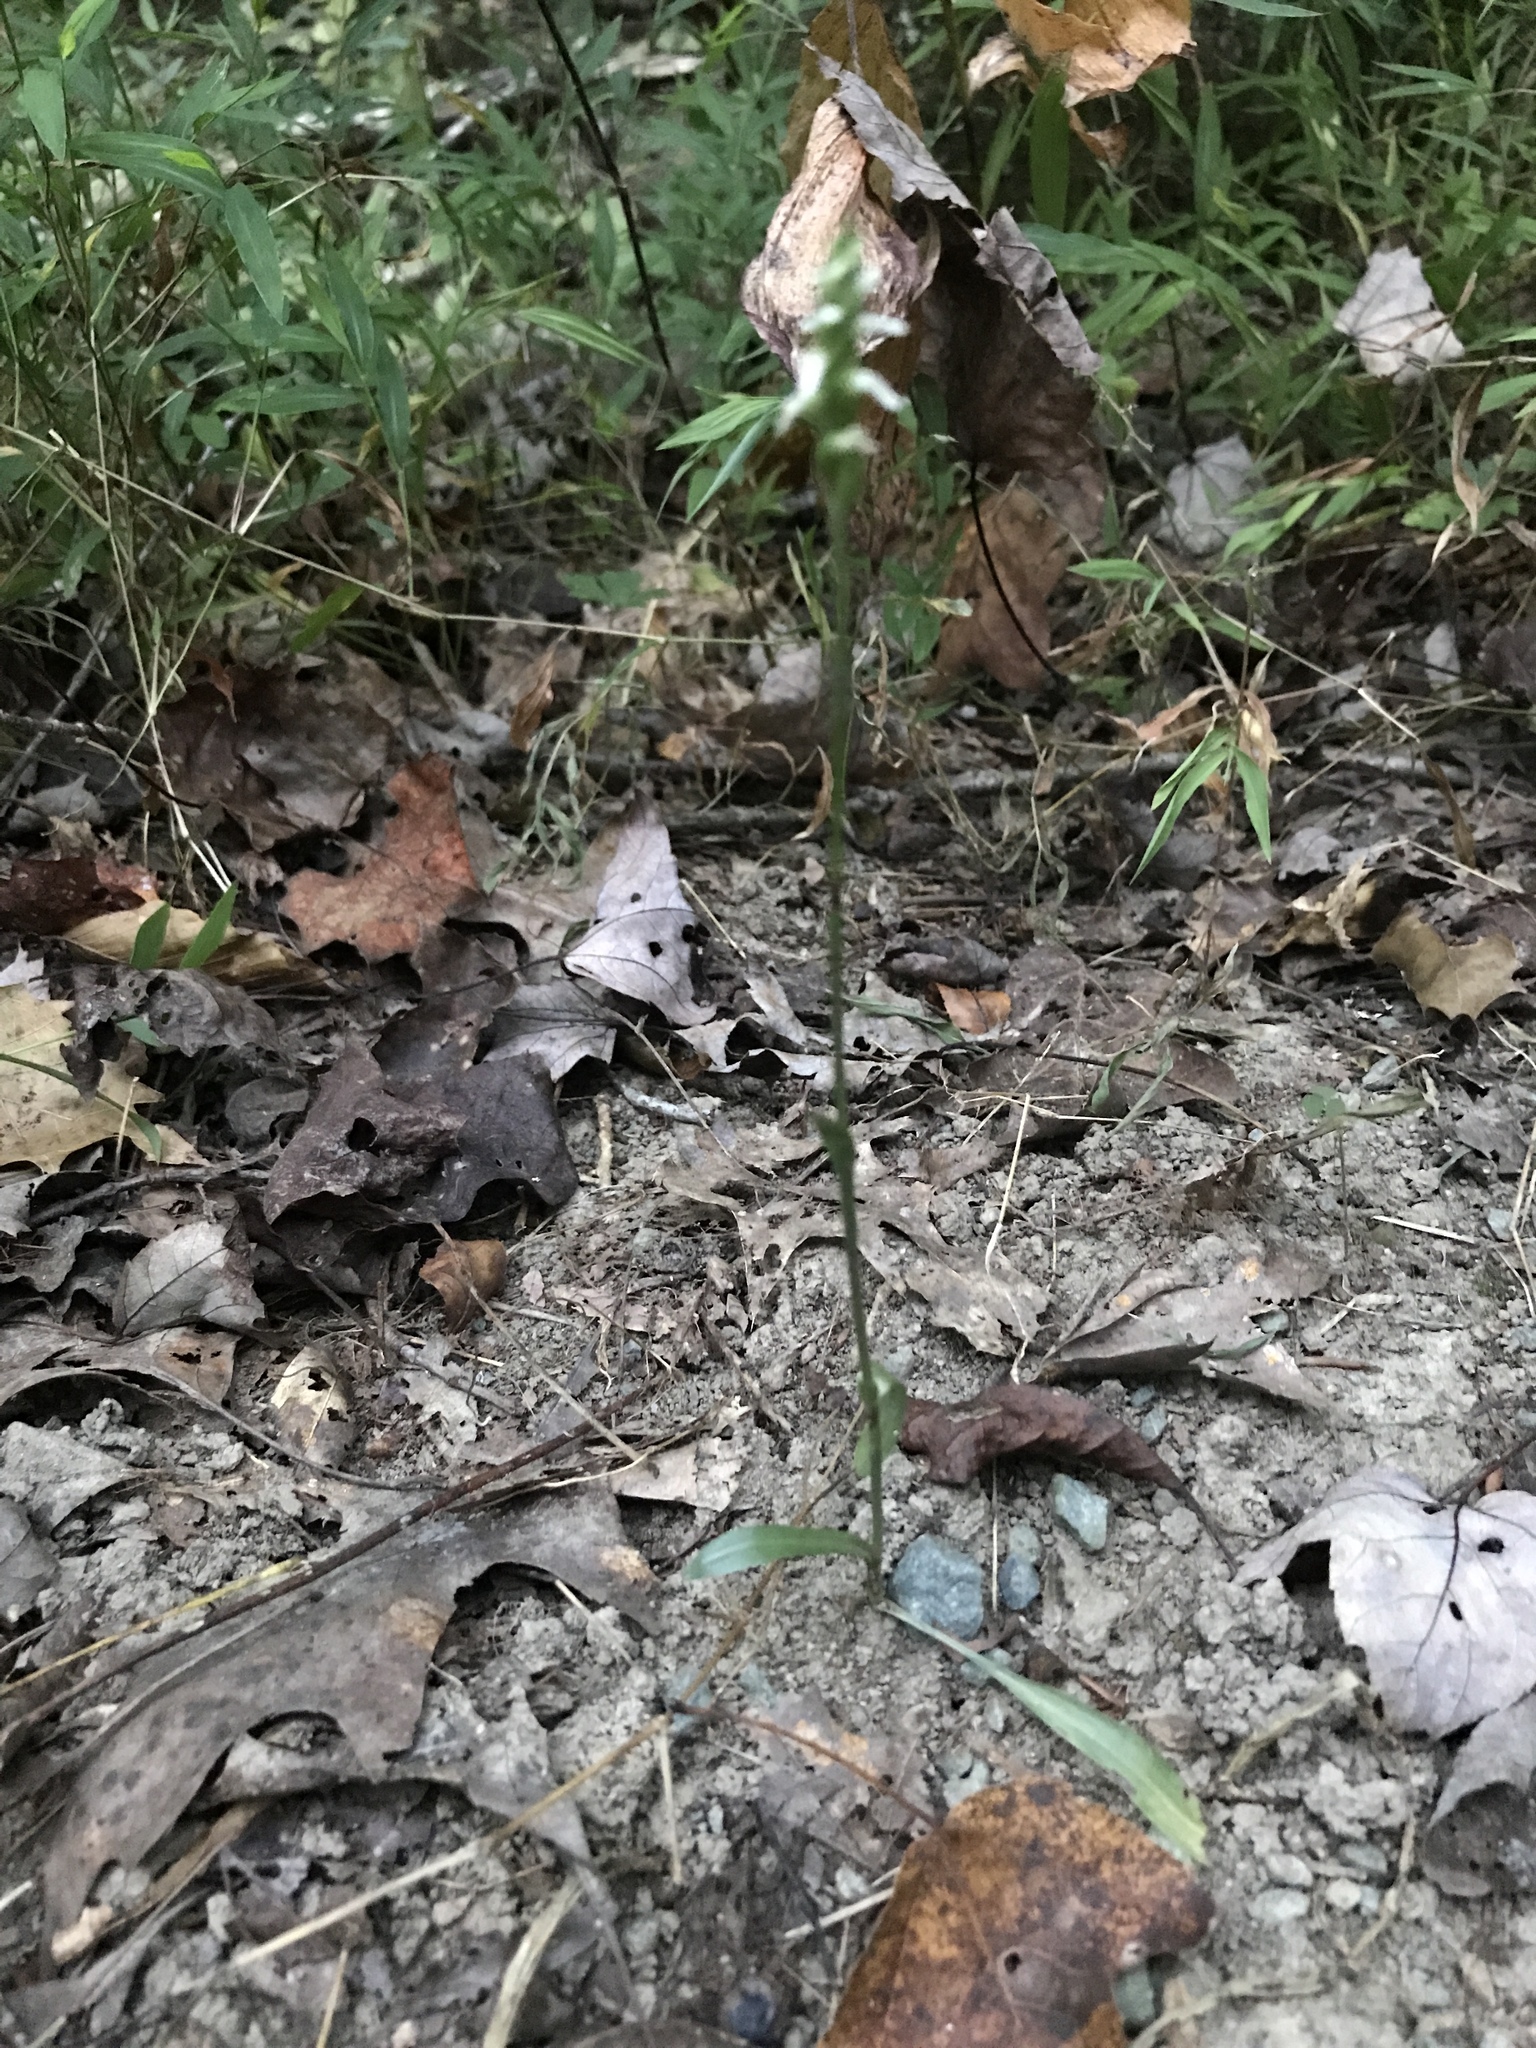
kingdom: Plantae
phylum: Tracheophyta
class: Liliopsida
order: Asparagales
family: Orchidaceae
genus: Spiranthes
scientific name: Spiranthes ovalis
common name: October ladies'-tresses
